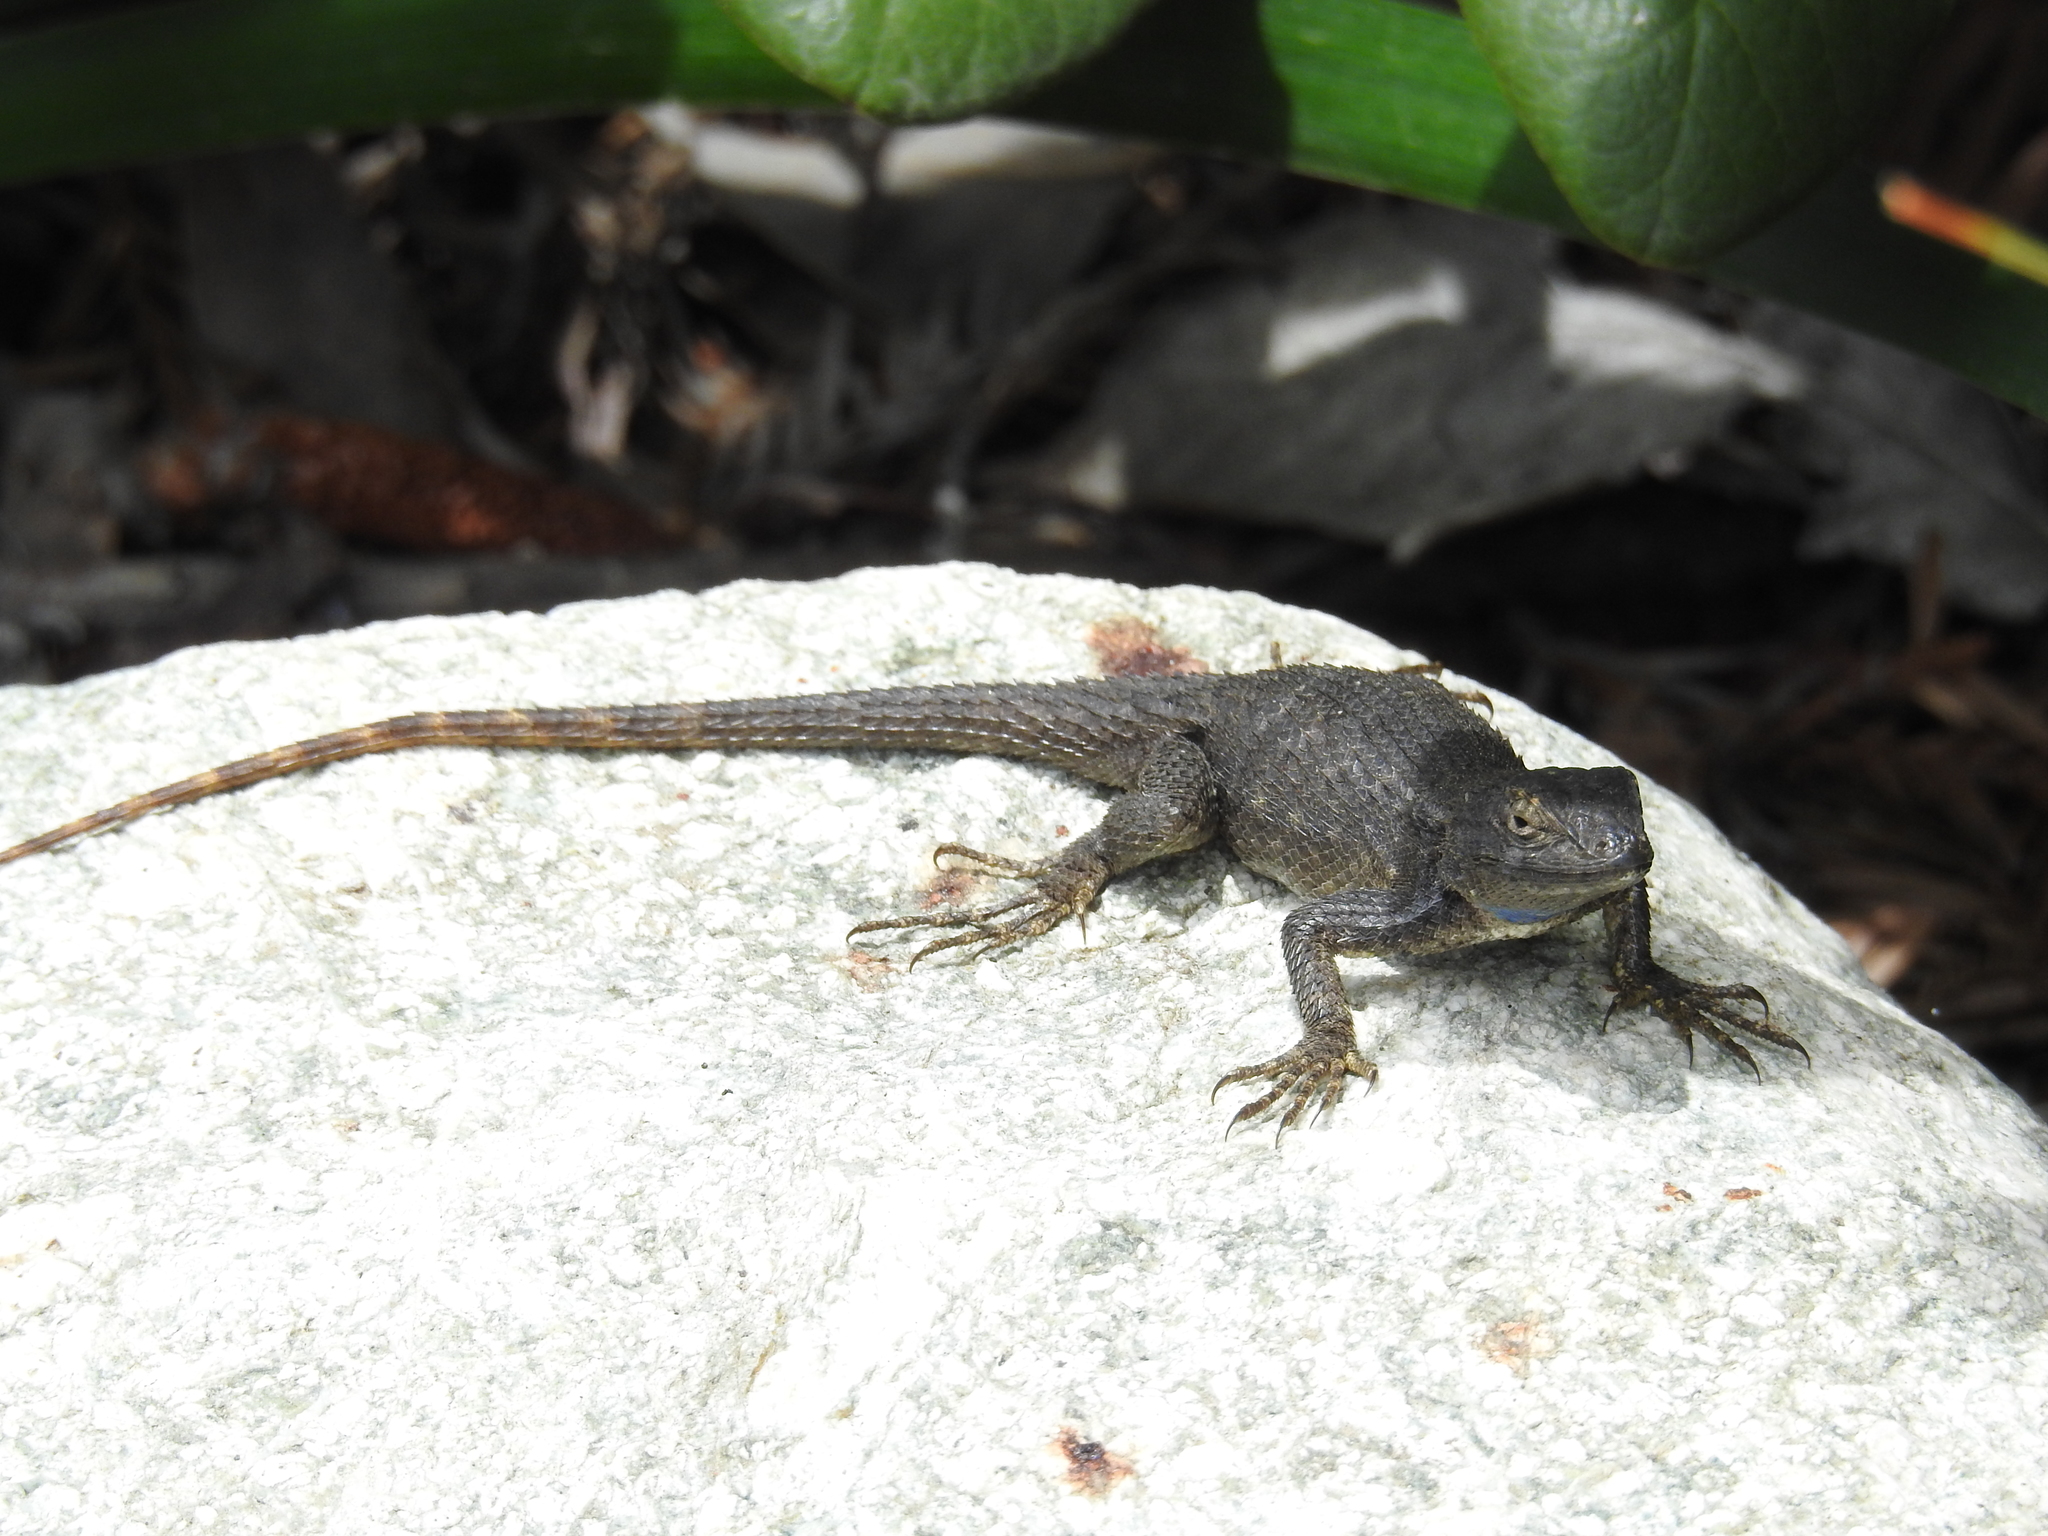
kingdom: Animalia
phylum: Chordata
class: Squamata
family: Phrynosomatidae
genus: Sceloporus
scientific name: Sceloporus occidentalis
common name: Western fence lizard
